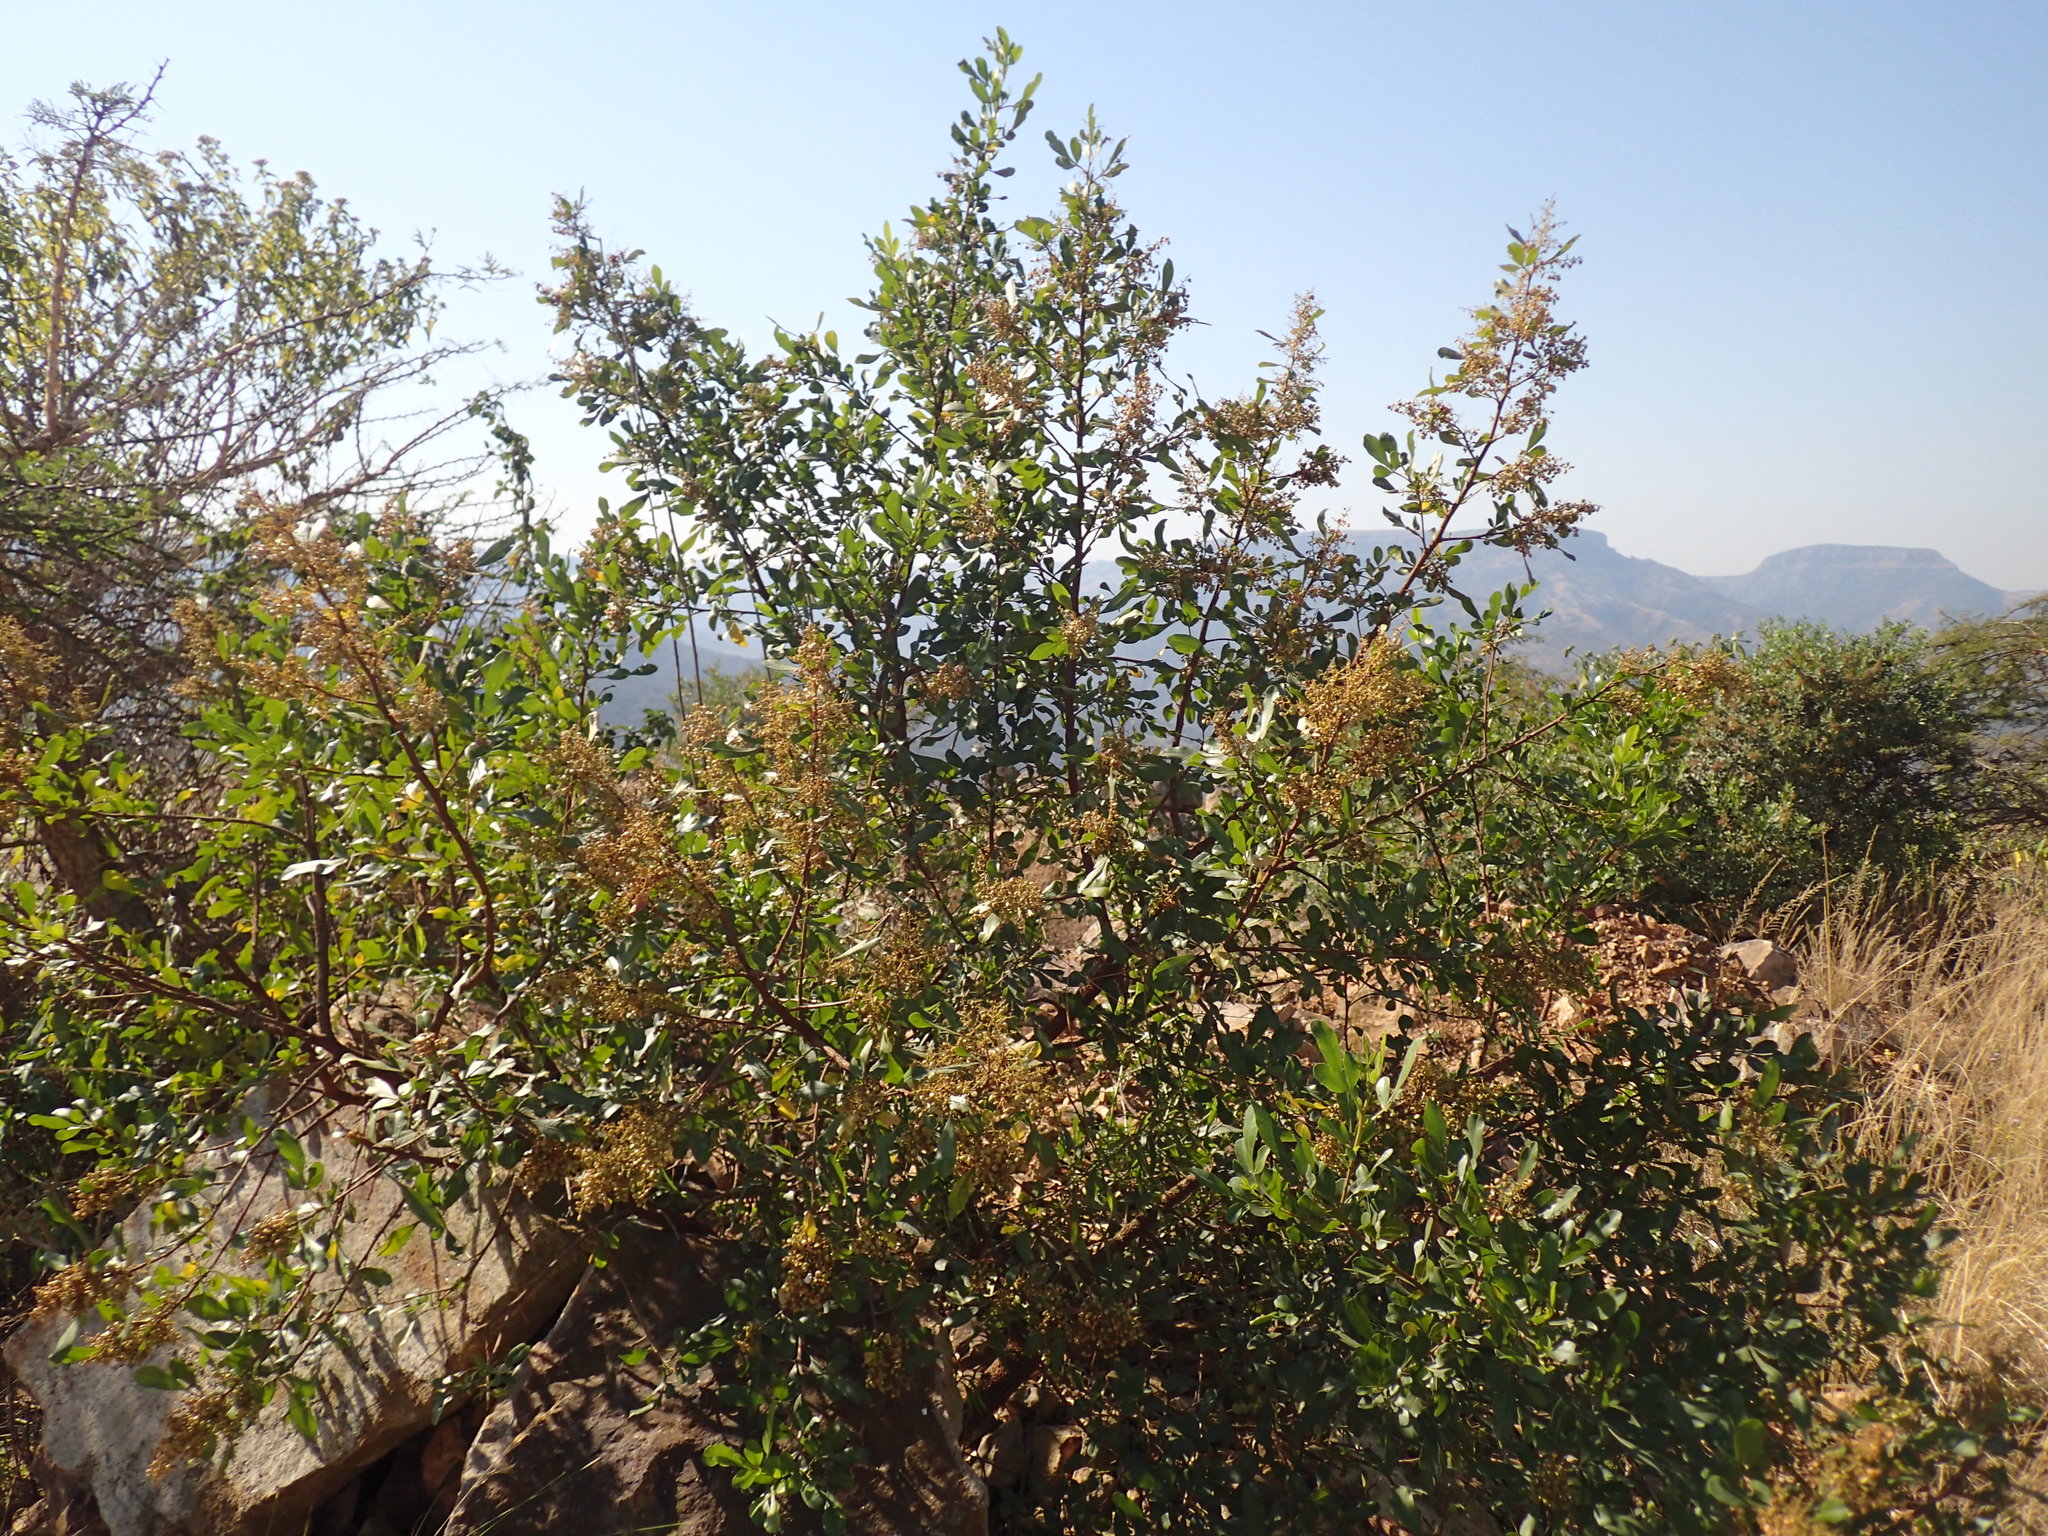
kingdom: Plantae
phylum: Tracheophyta
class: Magnoliopsida
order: Sapindales
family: Anacardiaceae
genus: Searsia
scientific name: Searsia pallens
